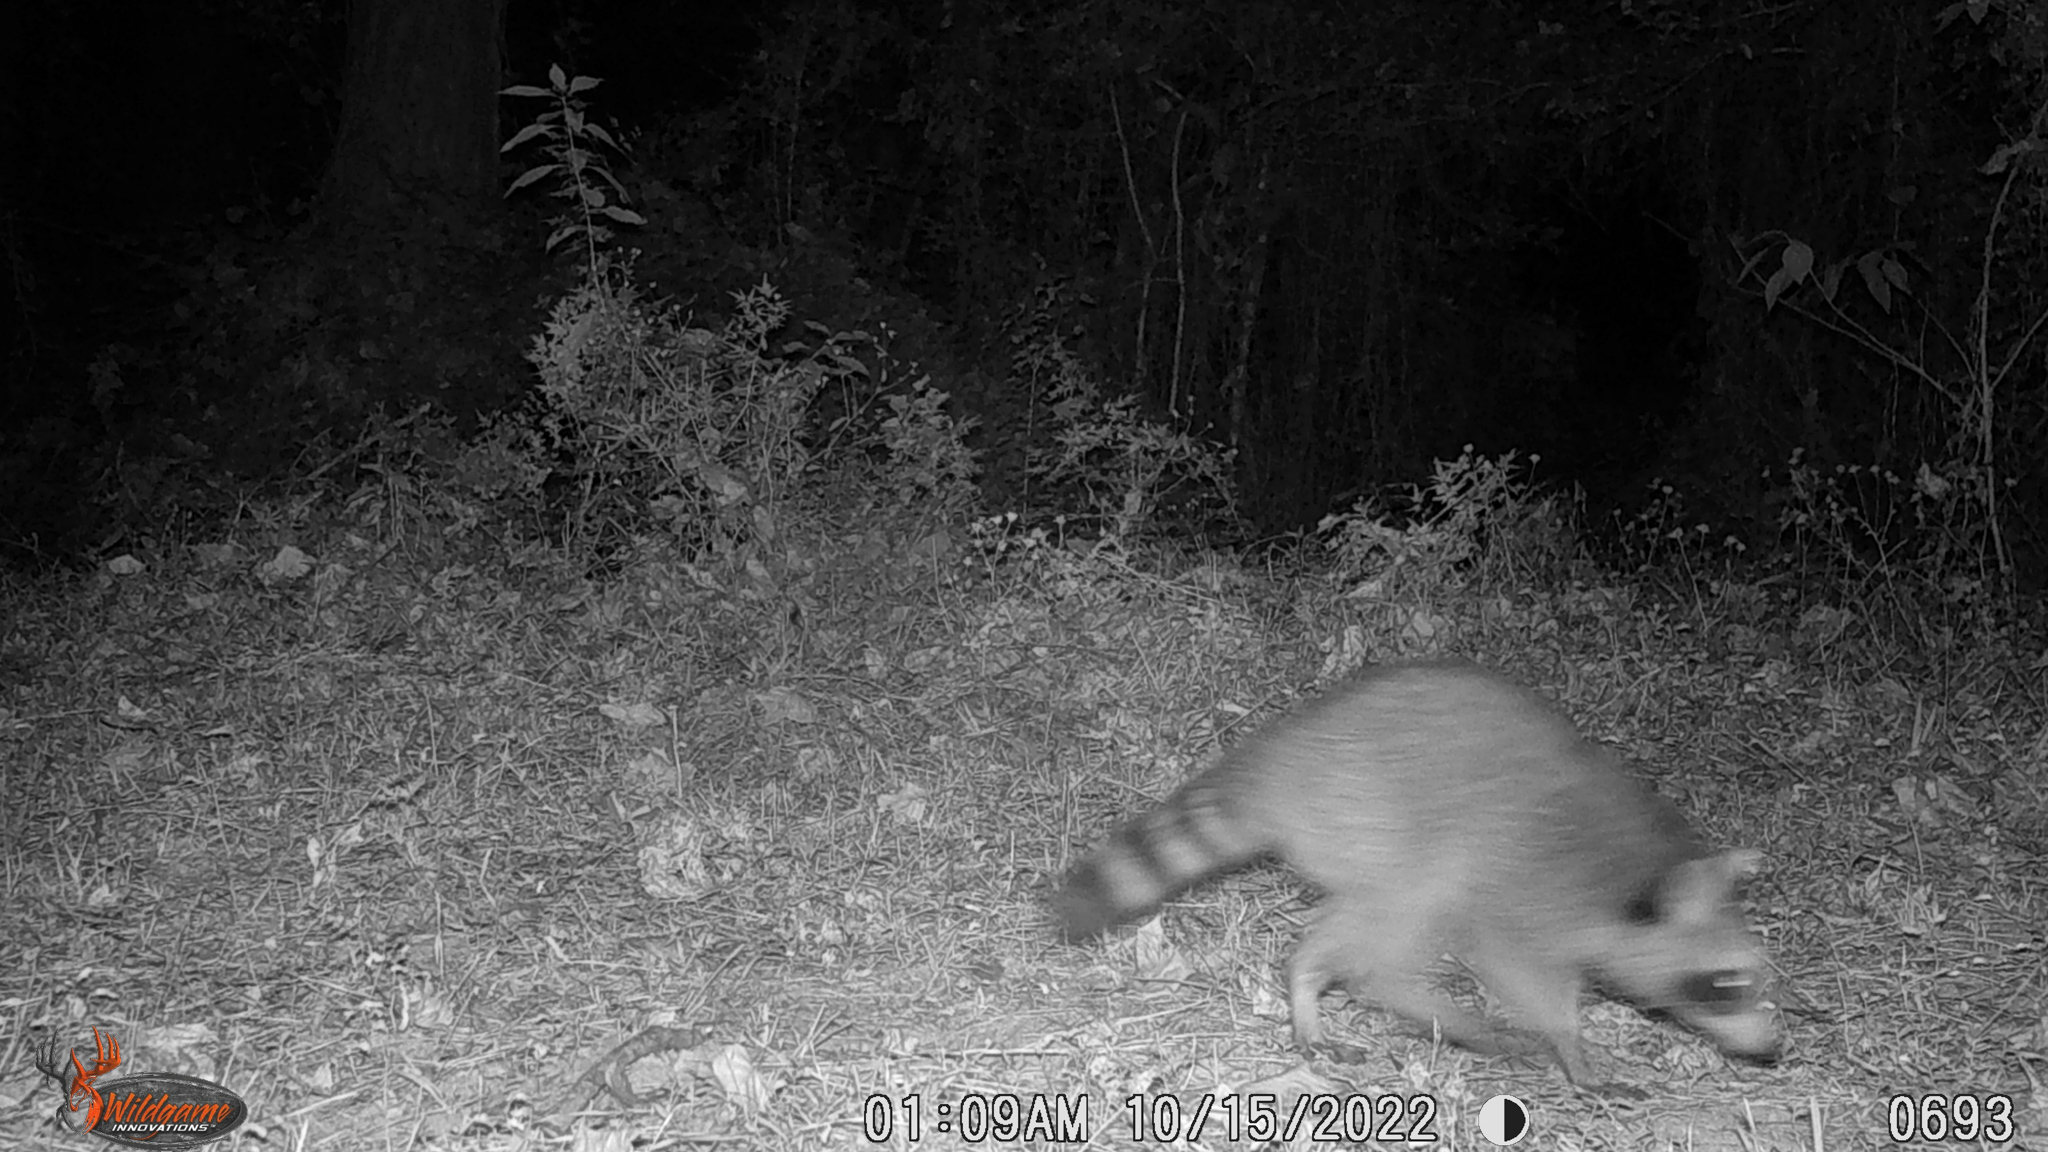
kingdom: Animalia
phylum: Chordata
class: Mammalia
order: Carnivora
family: Procyonidae
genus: Procyon
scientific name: Procyon lotor
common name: Raccoon
